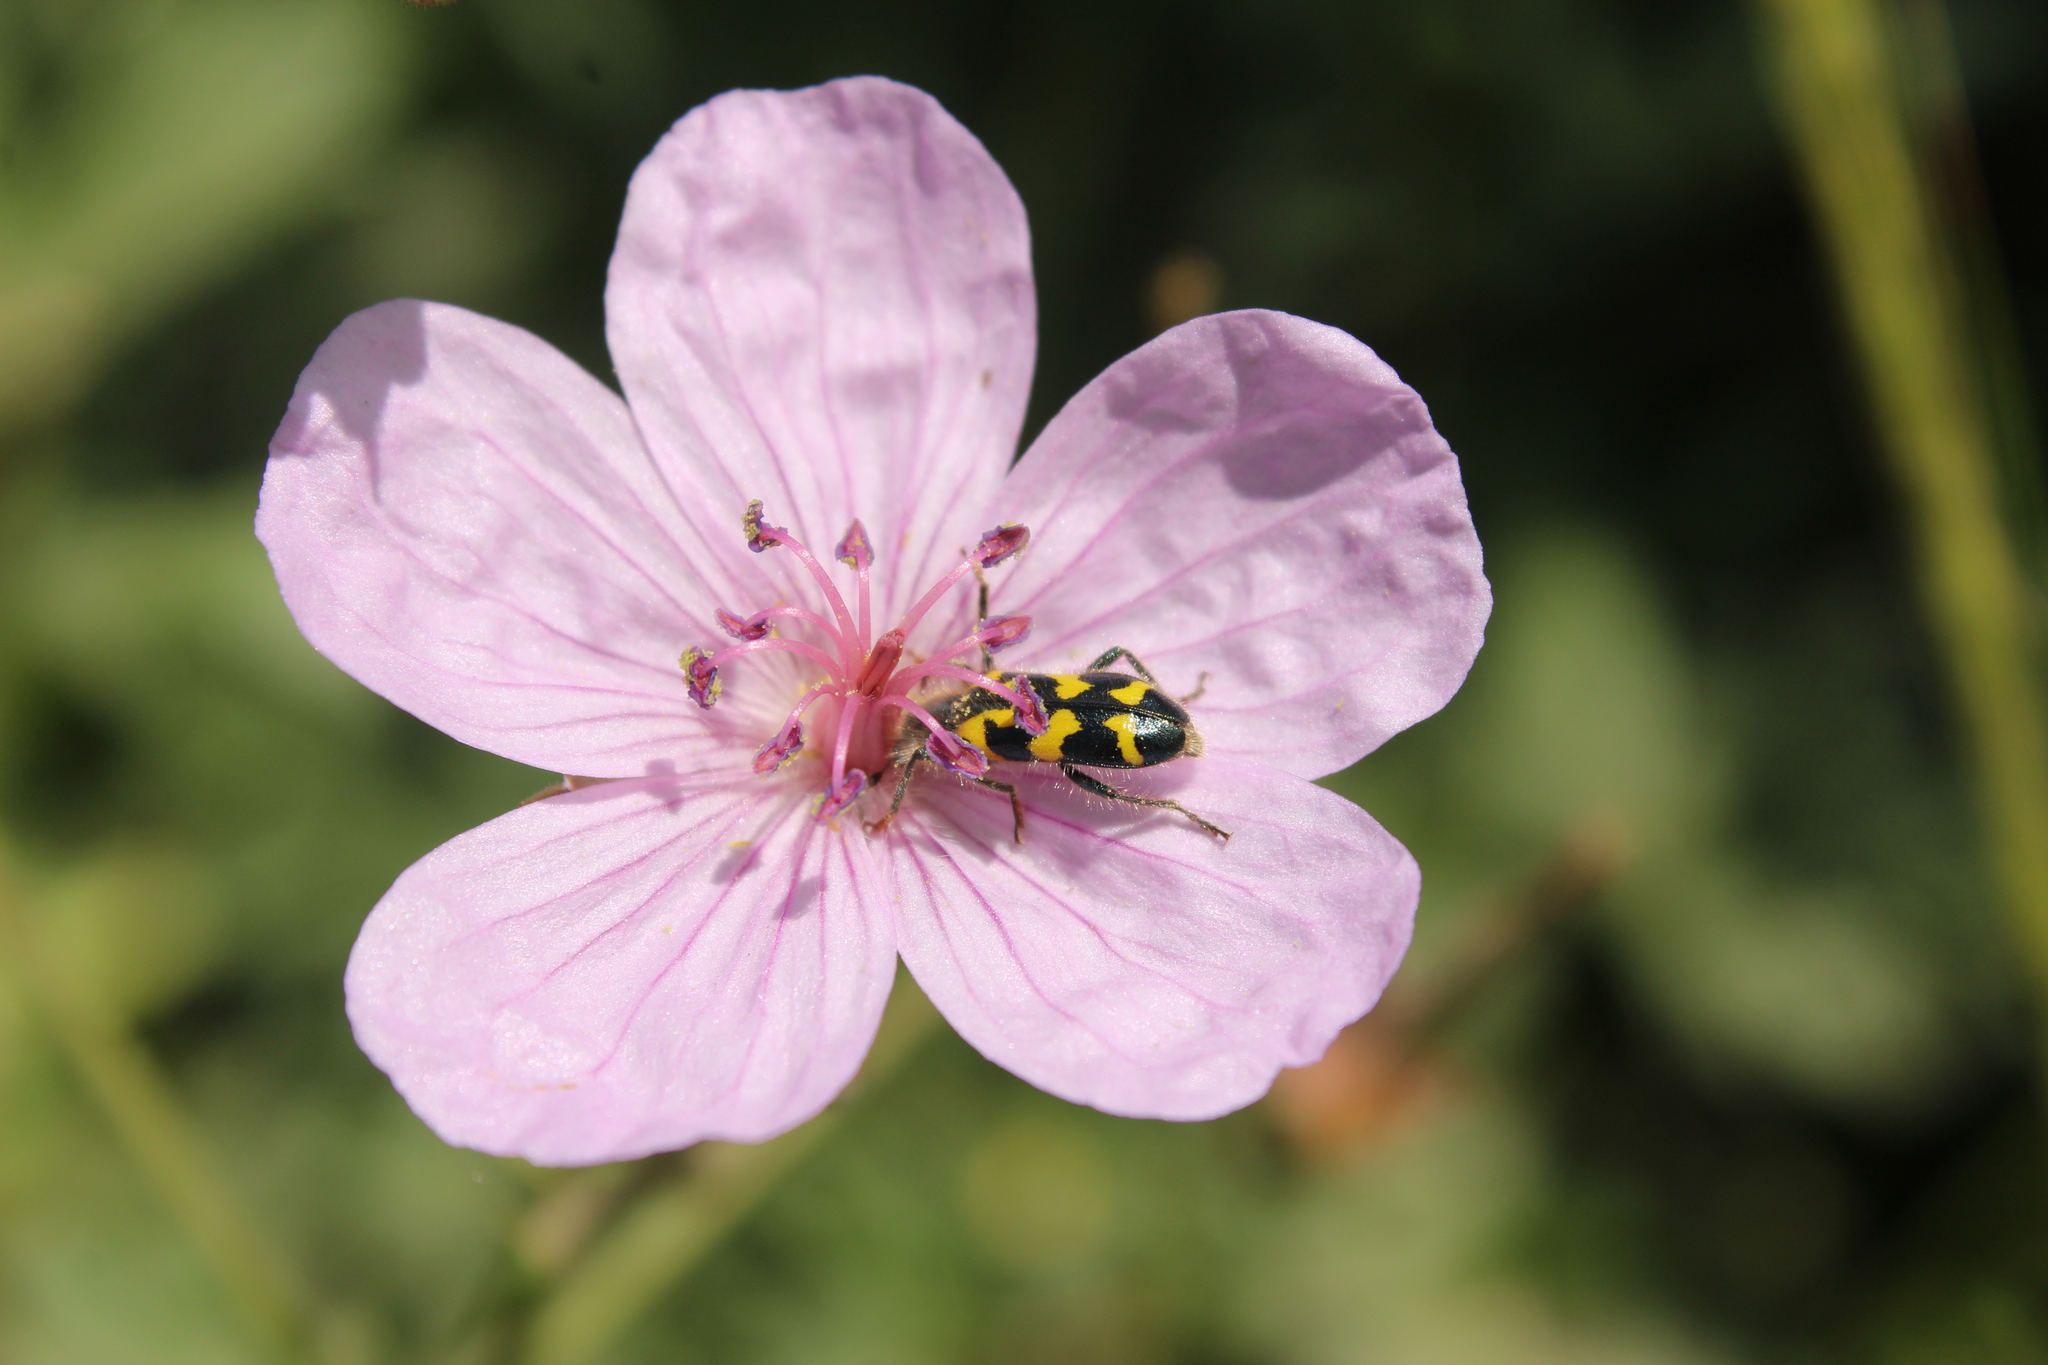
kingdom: Animalia
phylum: Arthropoda
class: Insecta
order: Coleoptera
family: Cleridae
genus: Trichodes
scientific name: Trichodes ornatus
